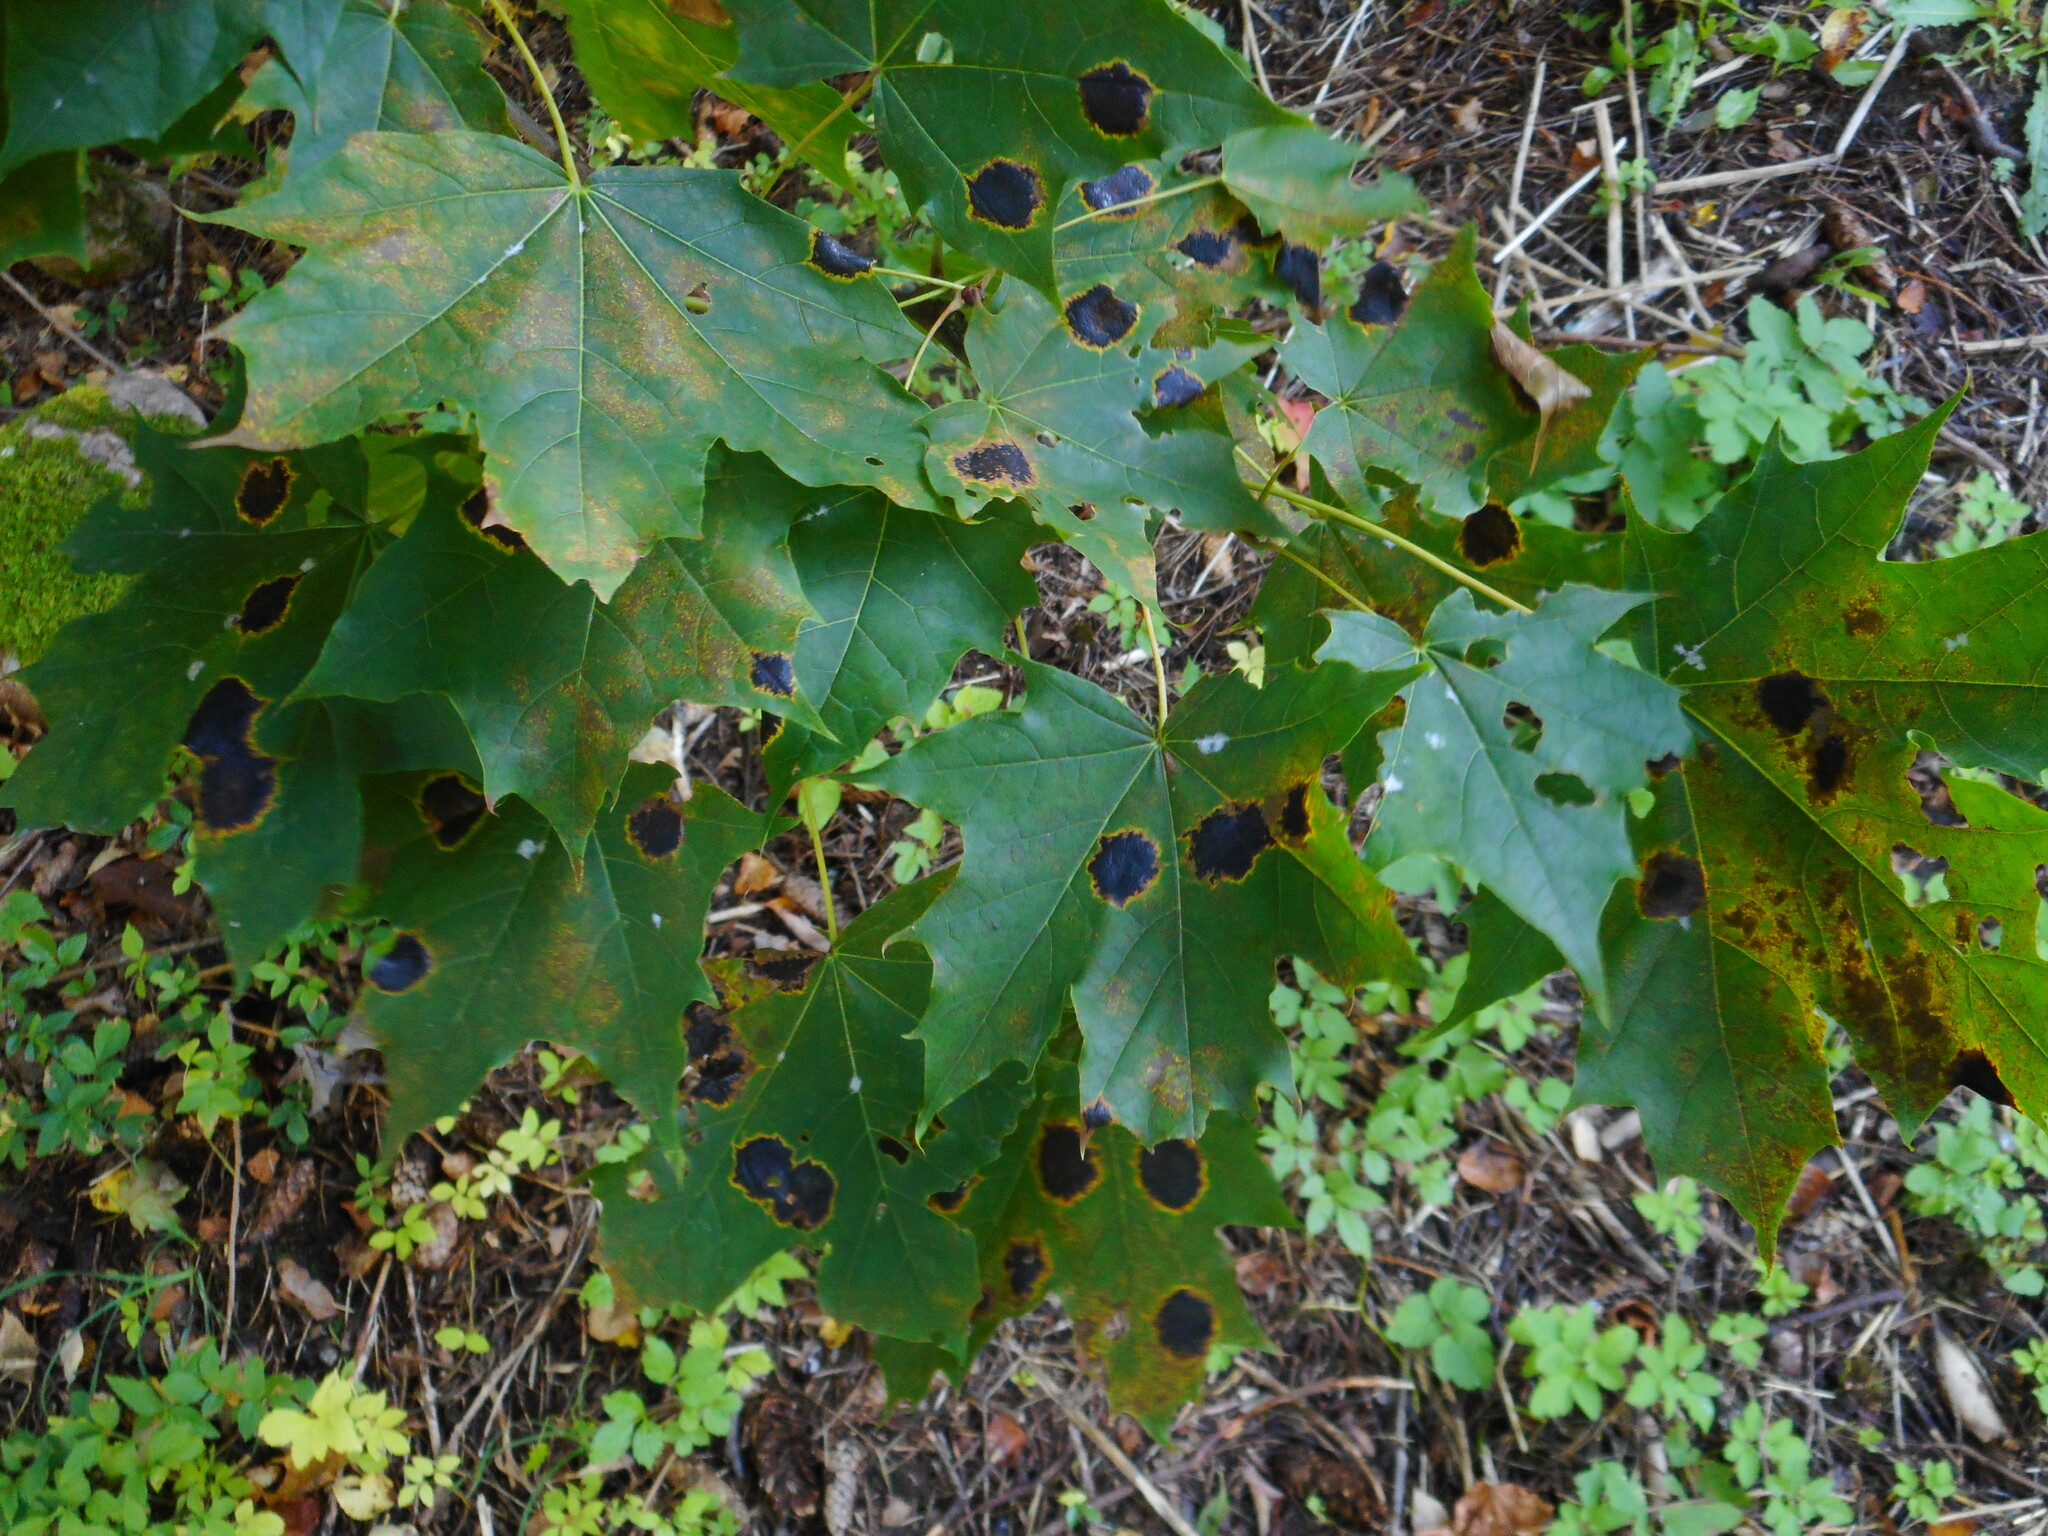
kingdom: Fungi
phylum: Ascomycota
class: Leotiomycetes
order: Rhytismatales
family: Rhytismataceae
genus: Rhytisma
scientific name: Rhytisma acerinum
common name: European tar spot
